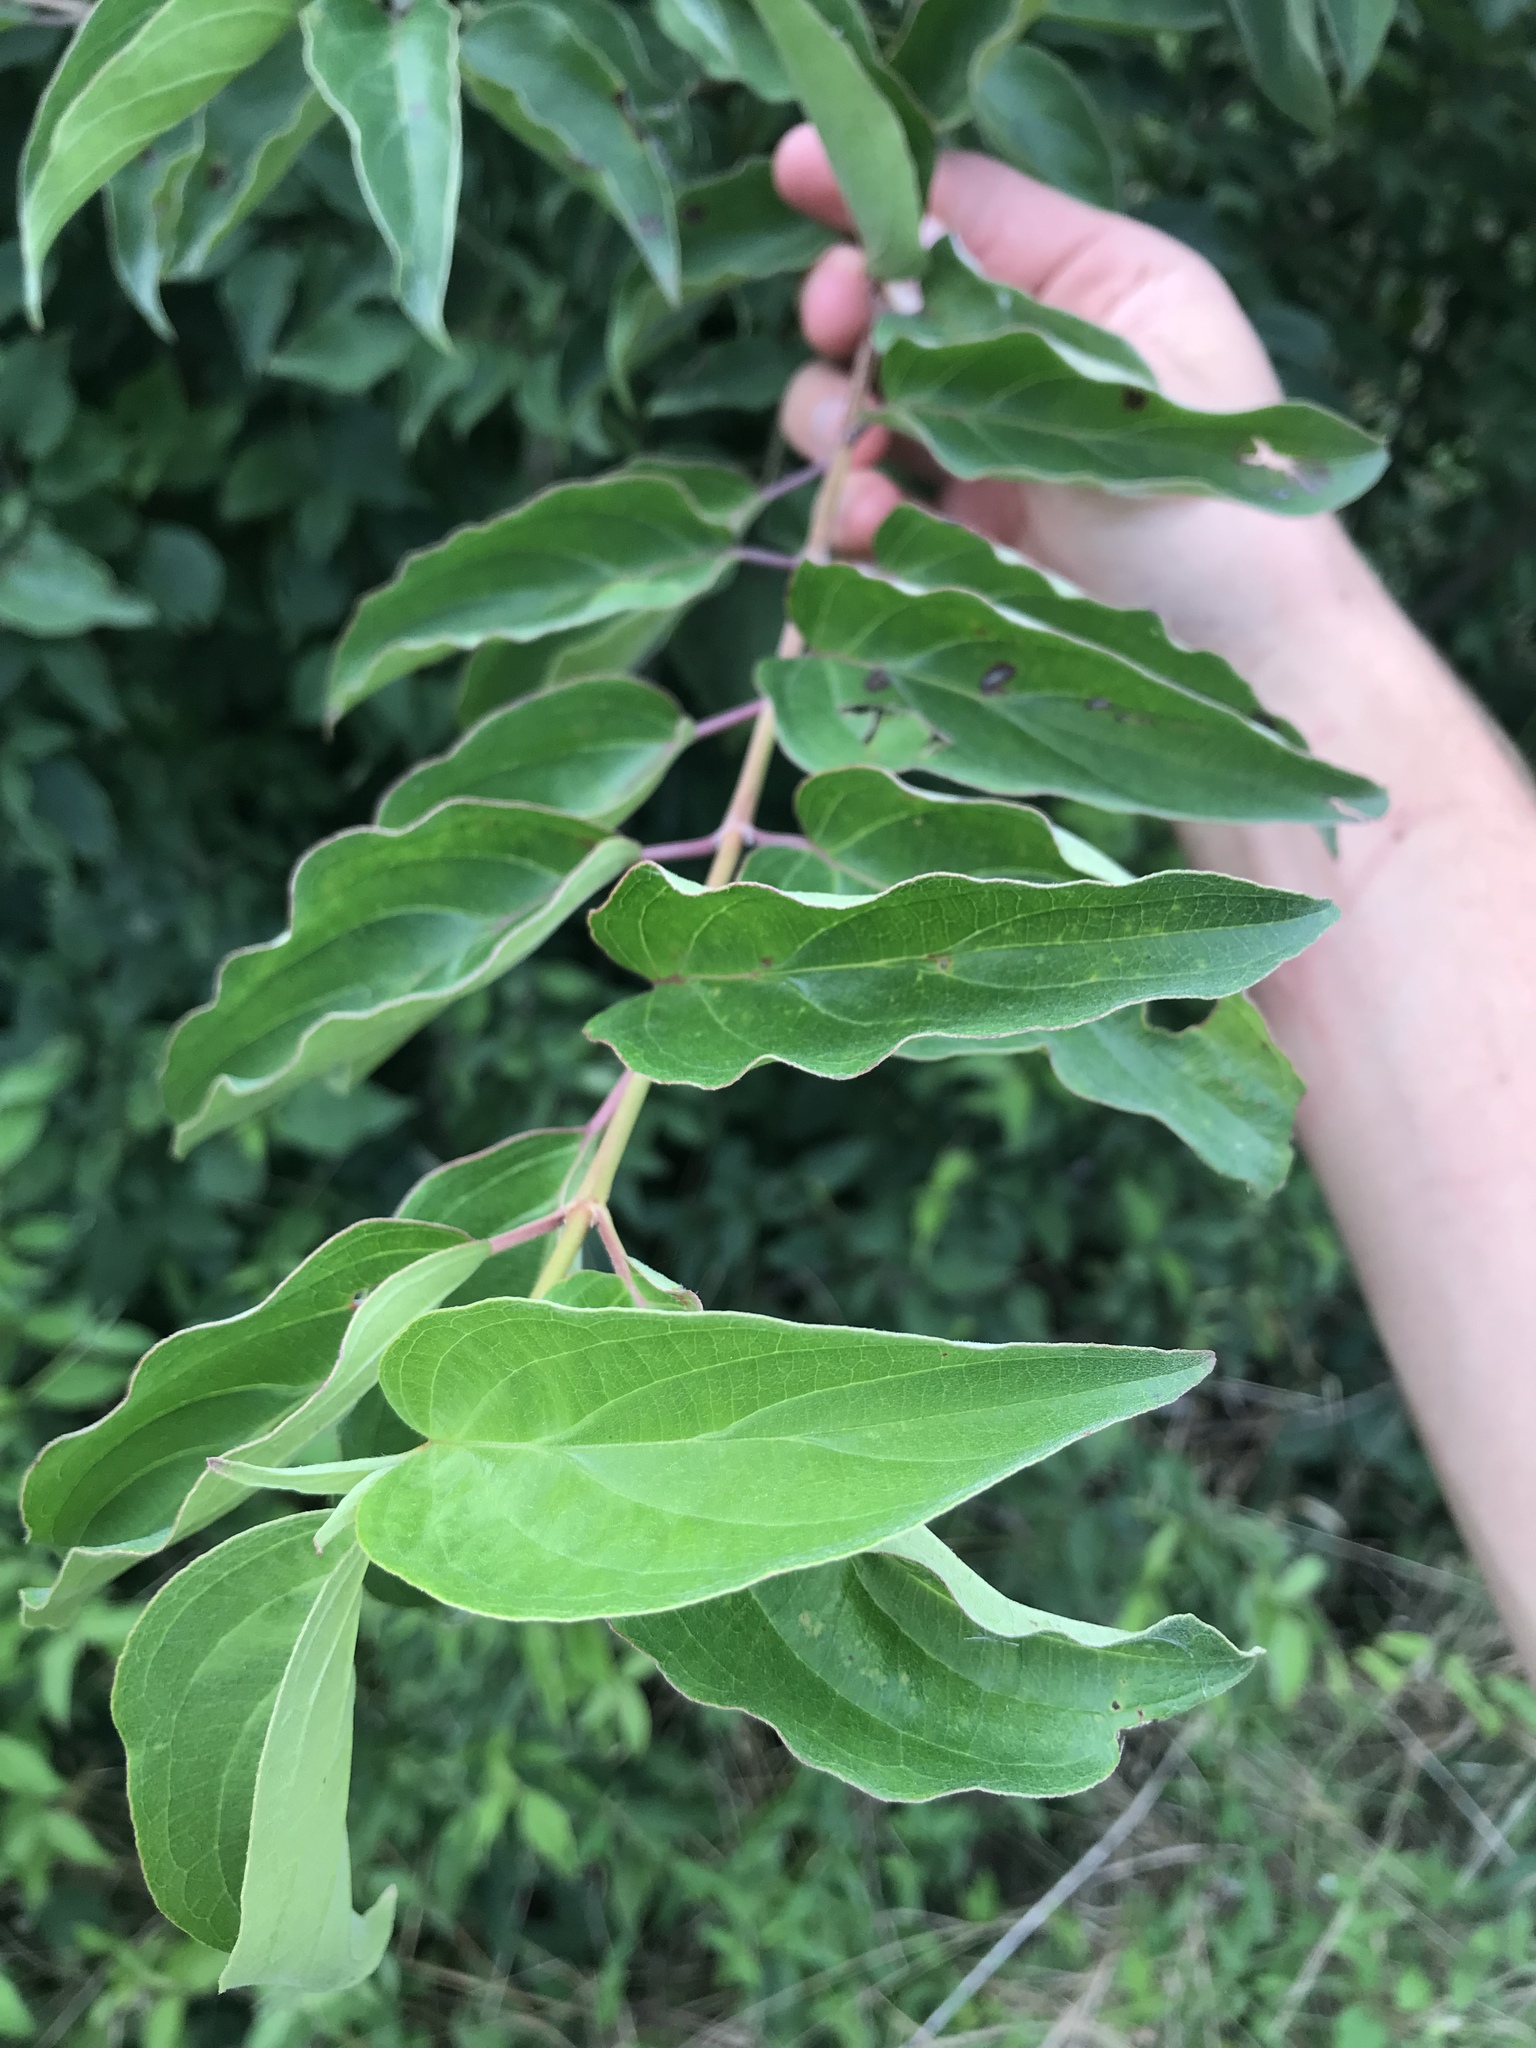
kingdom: Plantae
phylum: Tracheophyta
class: Magnoliopsida
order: Cornales
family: Cornaceae
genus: Cornus
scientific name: Cornus drummondii
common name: Rough-leaf dogwood
